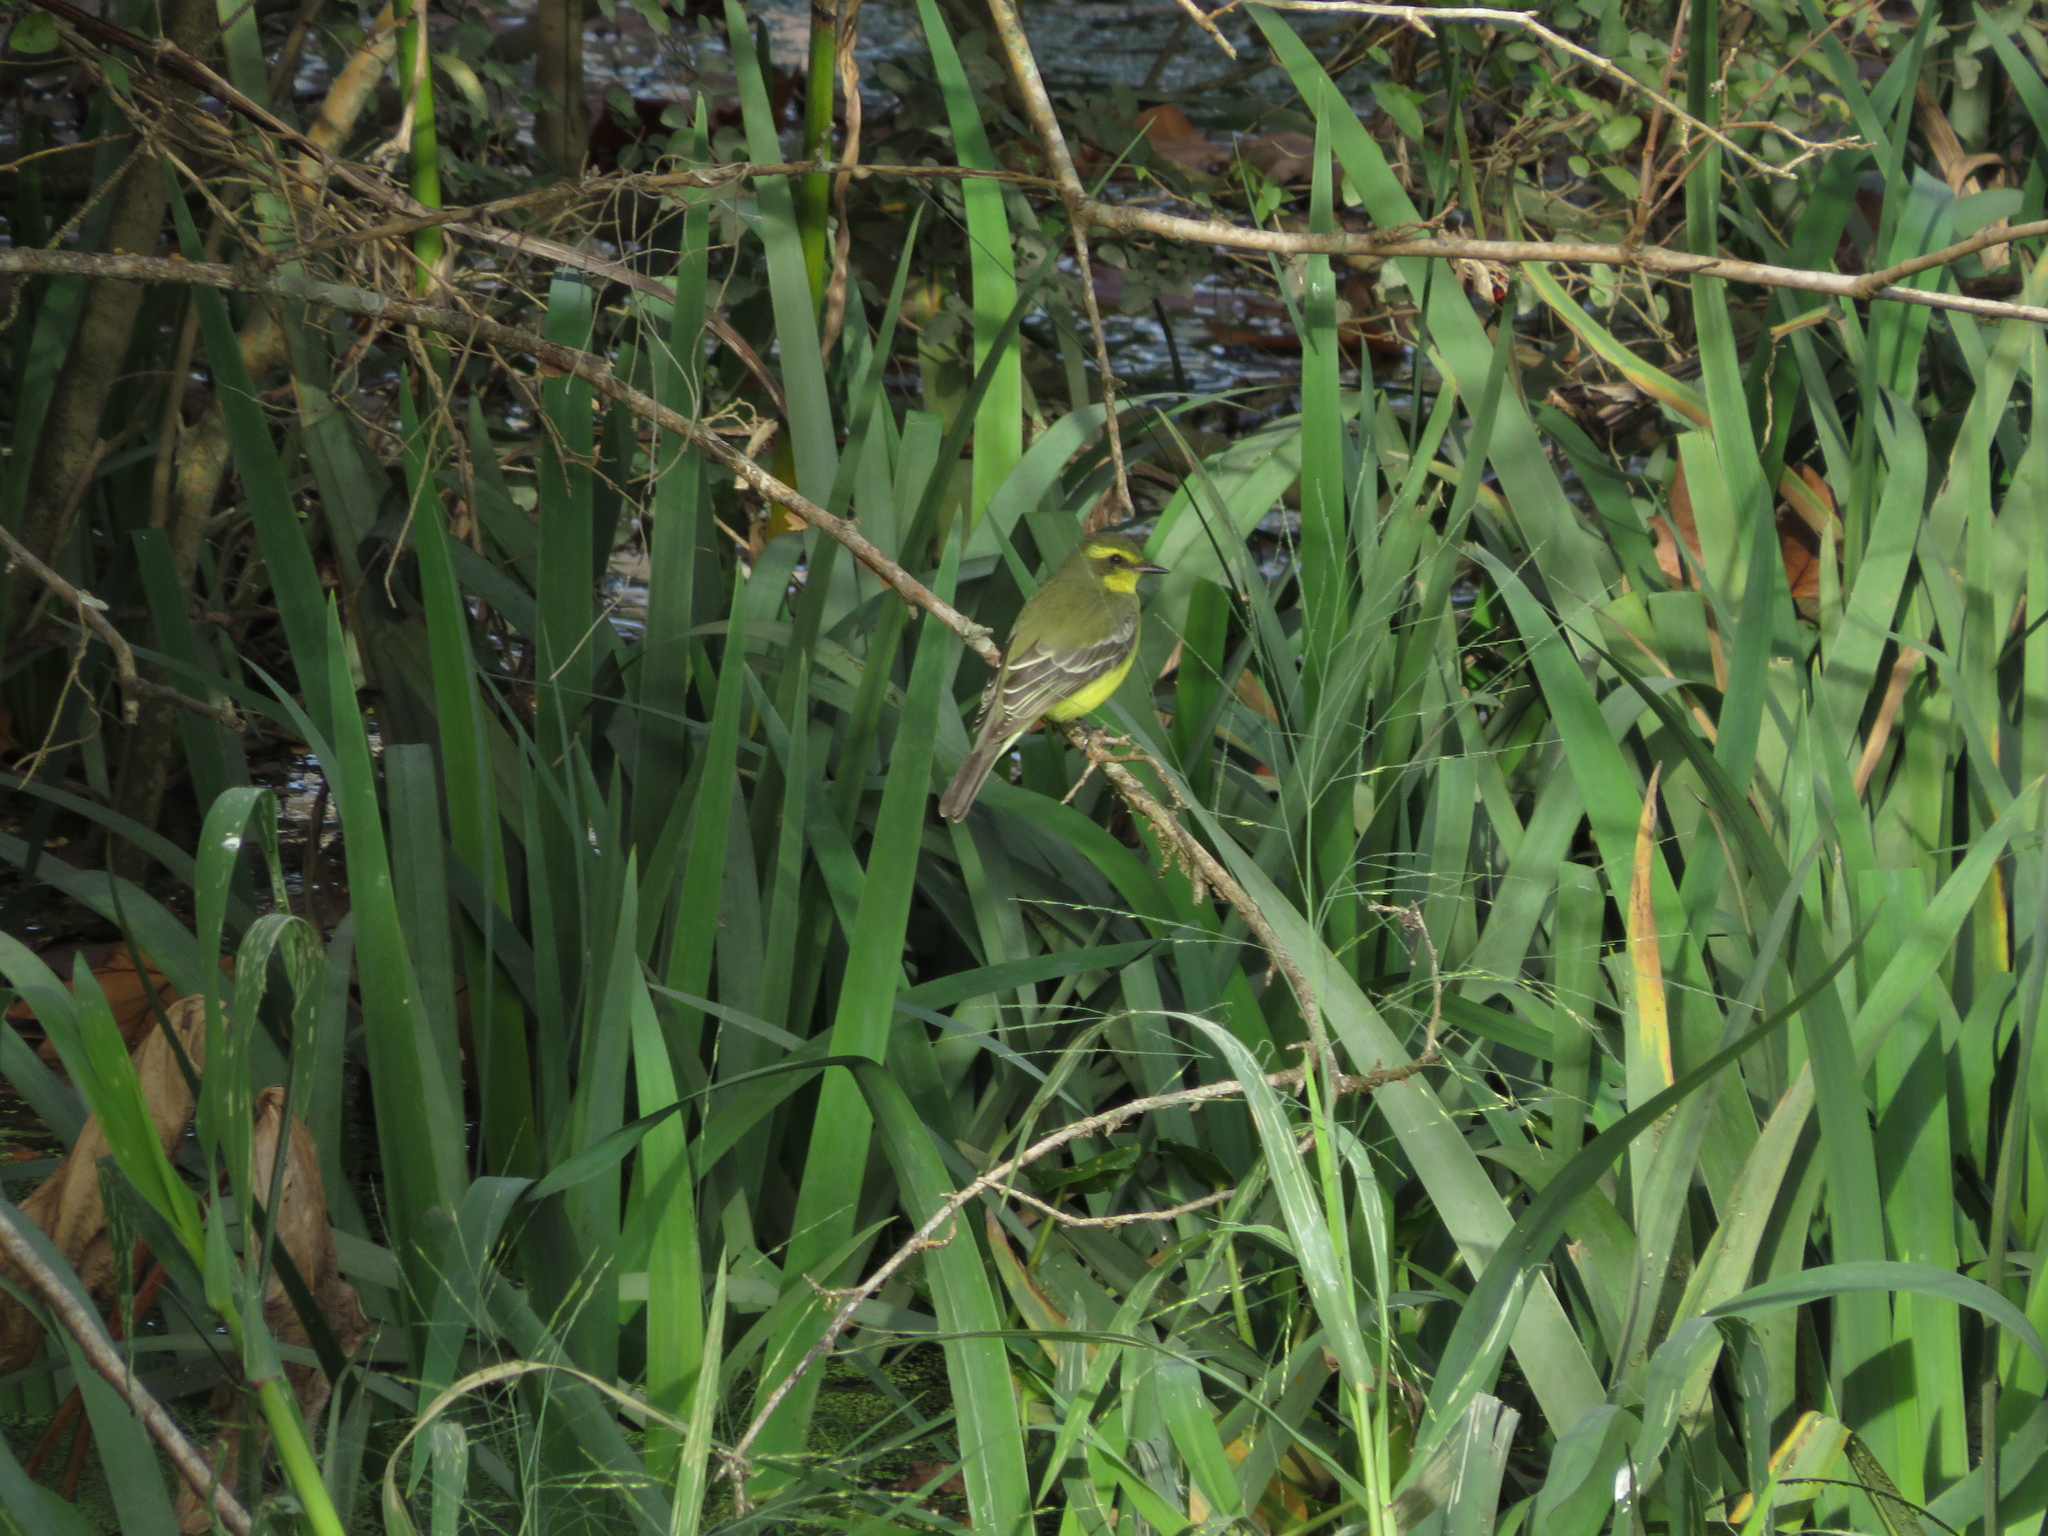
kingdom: Animalia
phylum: Chordata
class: Aves
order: Passeriformes
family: Tyrannidae
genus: Satrapa
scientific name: Satrapa icterophrys
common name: Yellow-browed tyrant
